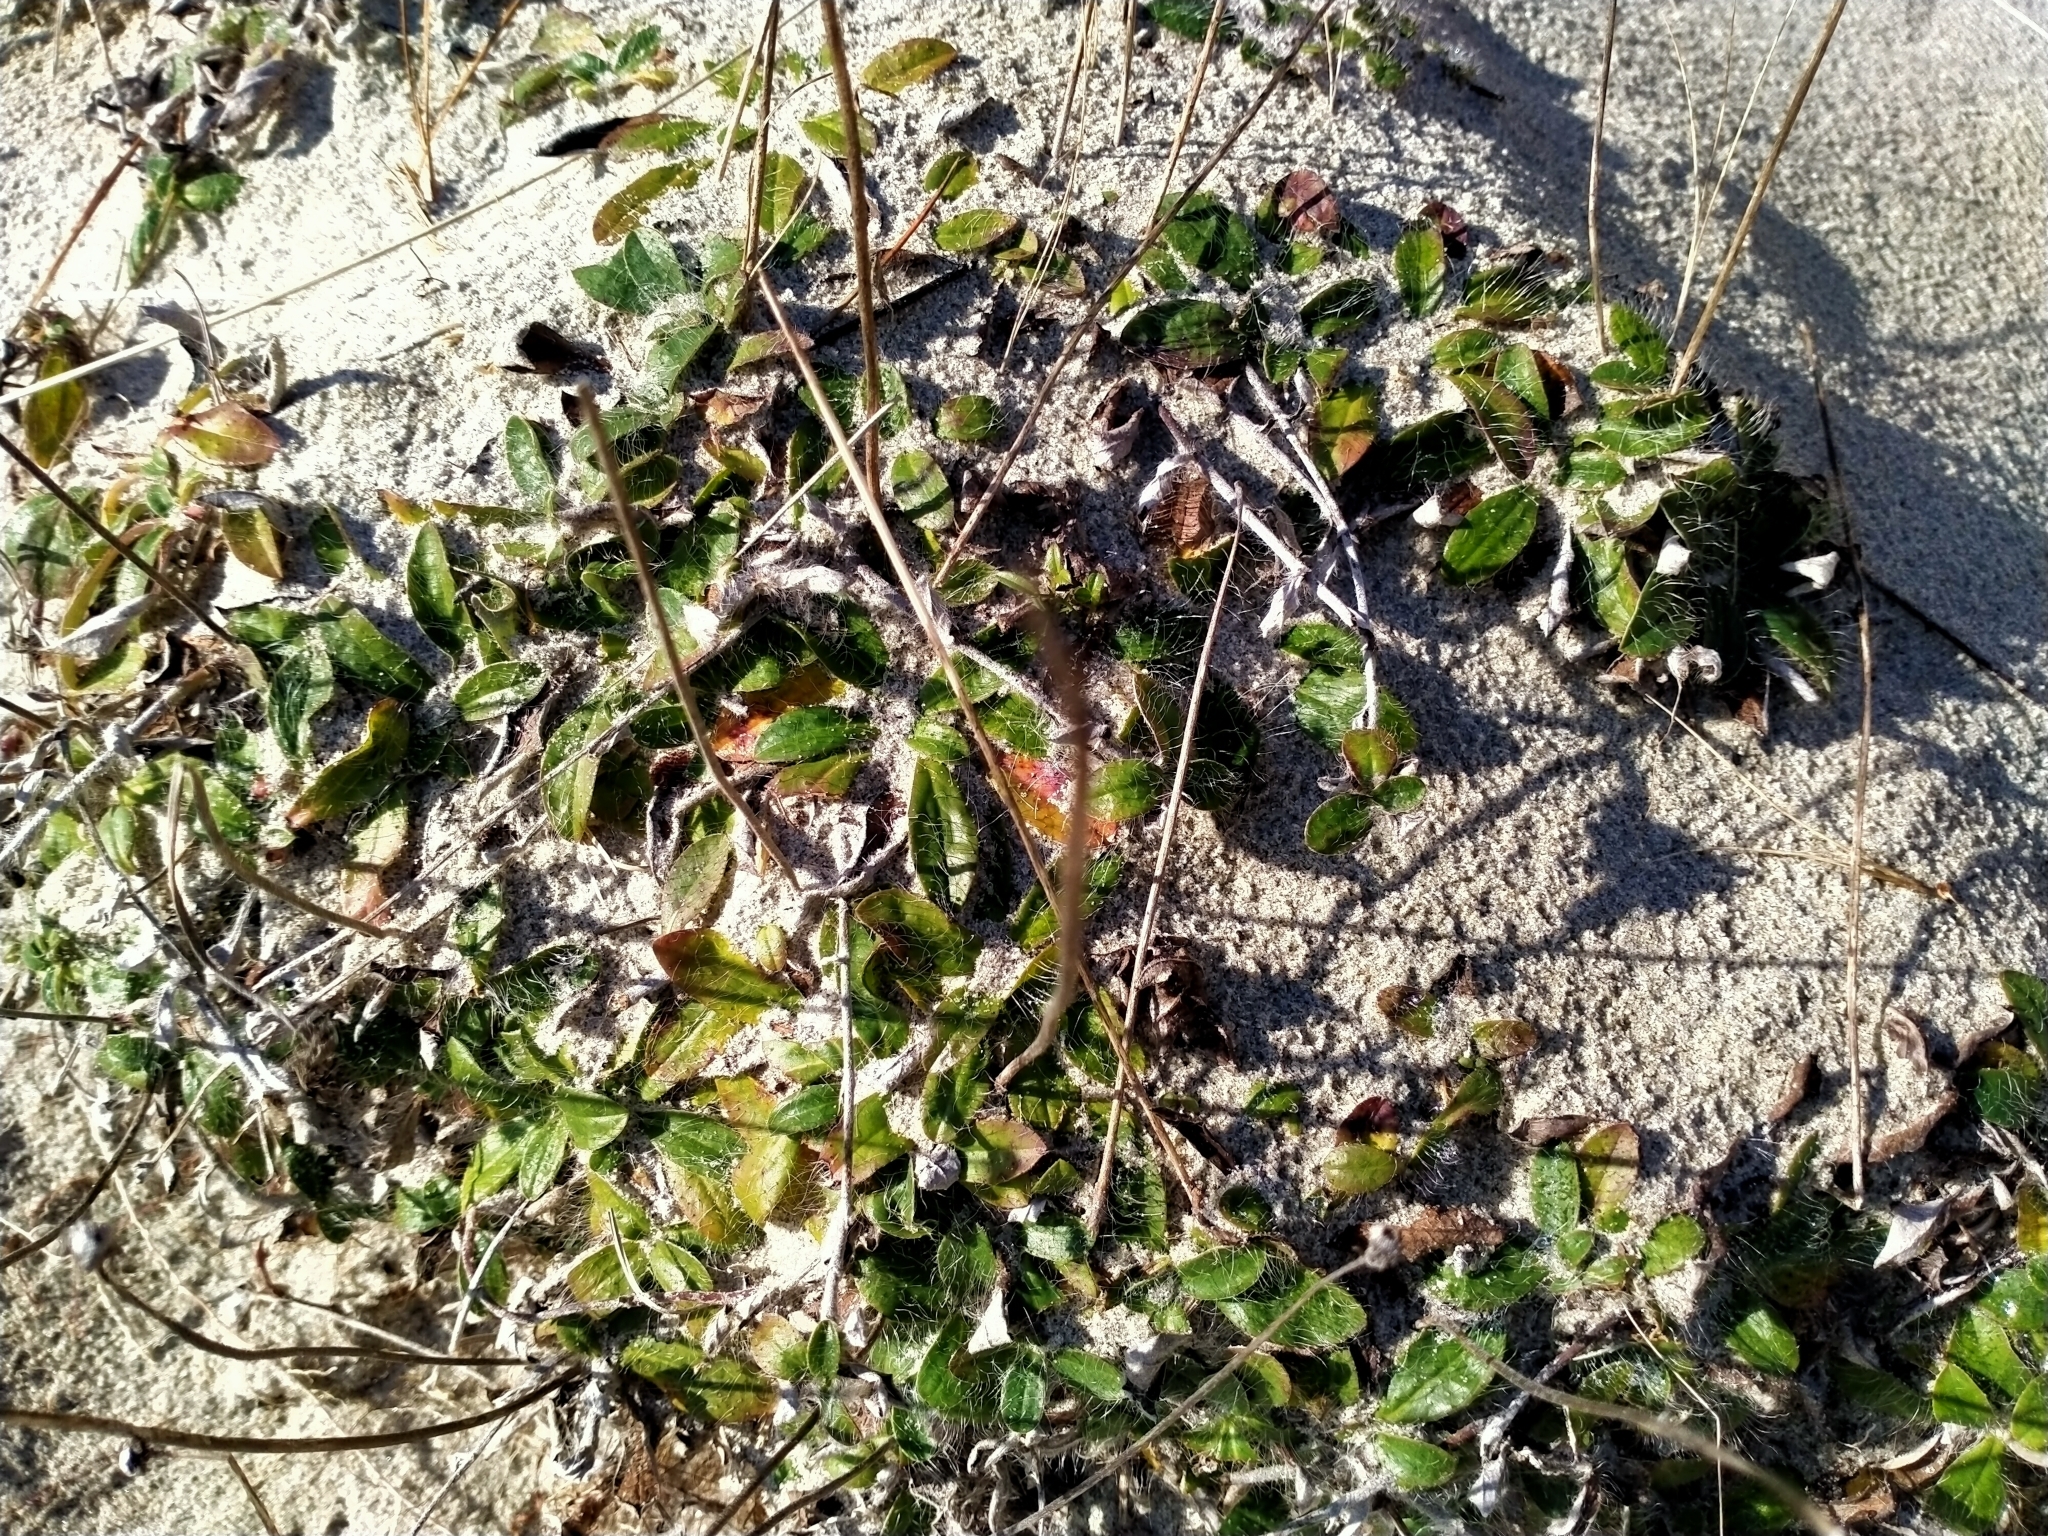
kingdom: Plantae
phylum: Tracheophyta
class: Magnoliopsida
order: Asterales
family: Asteraceae
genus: Pilosella
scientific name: Pilosella officinarum
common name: Mouse-ear hawkweed
